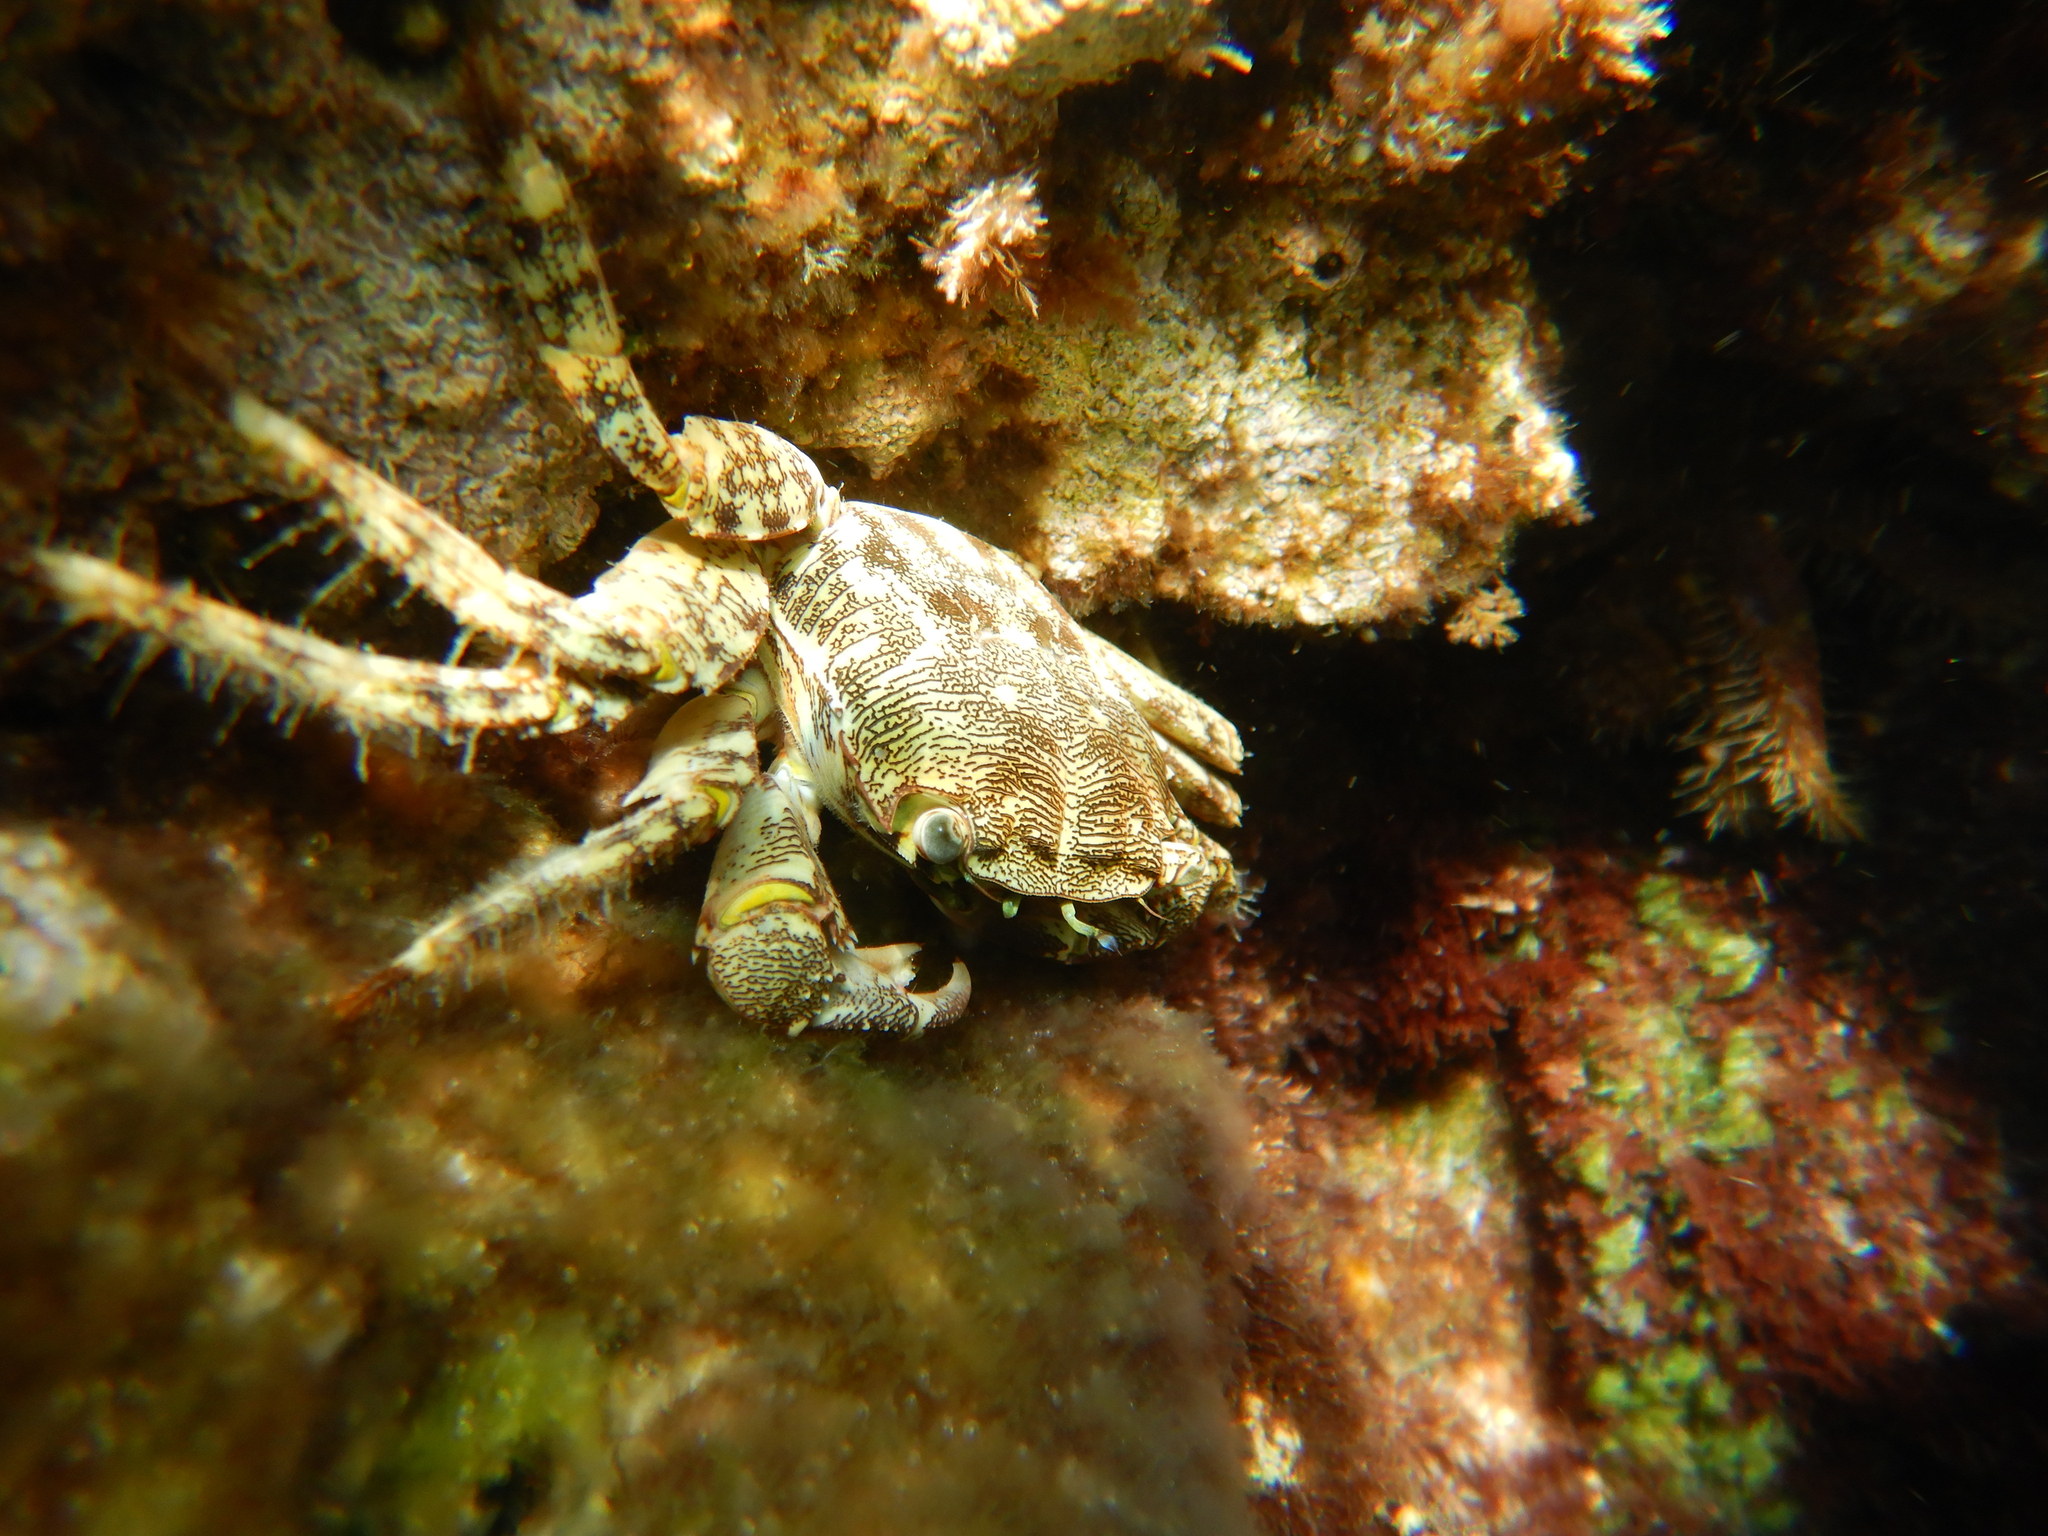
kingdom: Animalia
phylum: Arthropoda
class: Malacostraca
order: Decapoda
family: Grapsidae
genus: Pachygrapsus
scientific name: Pachygrapsus marmoratus
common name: Marbled rock crab
